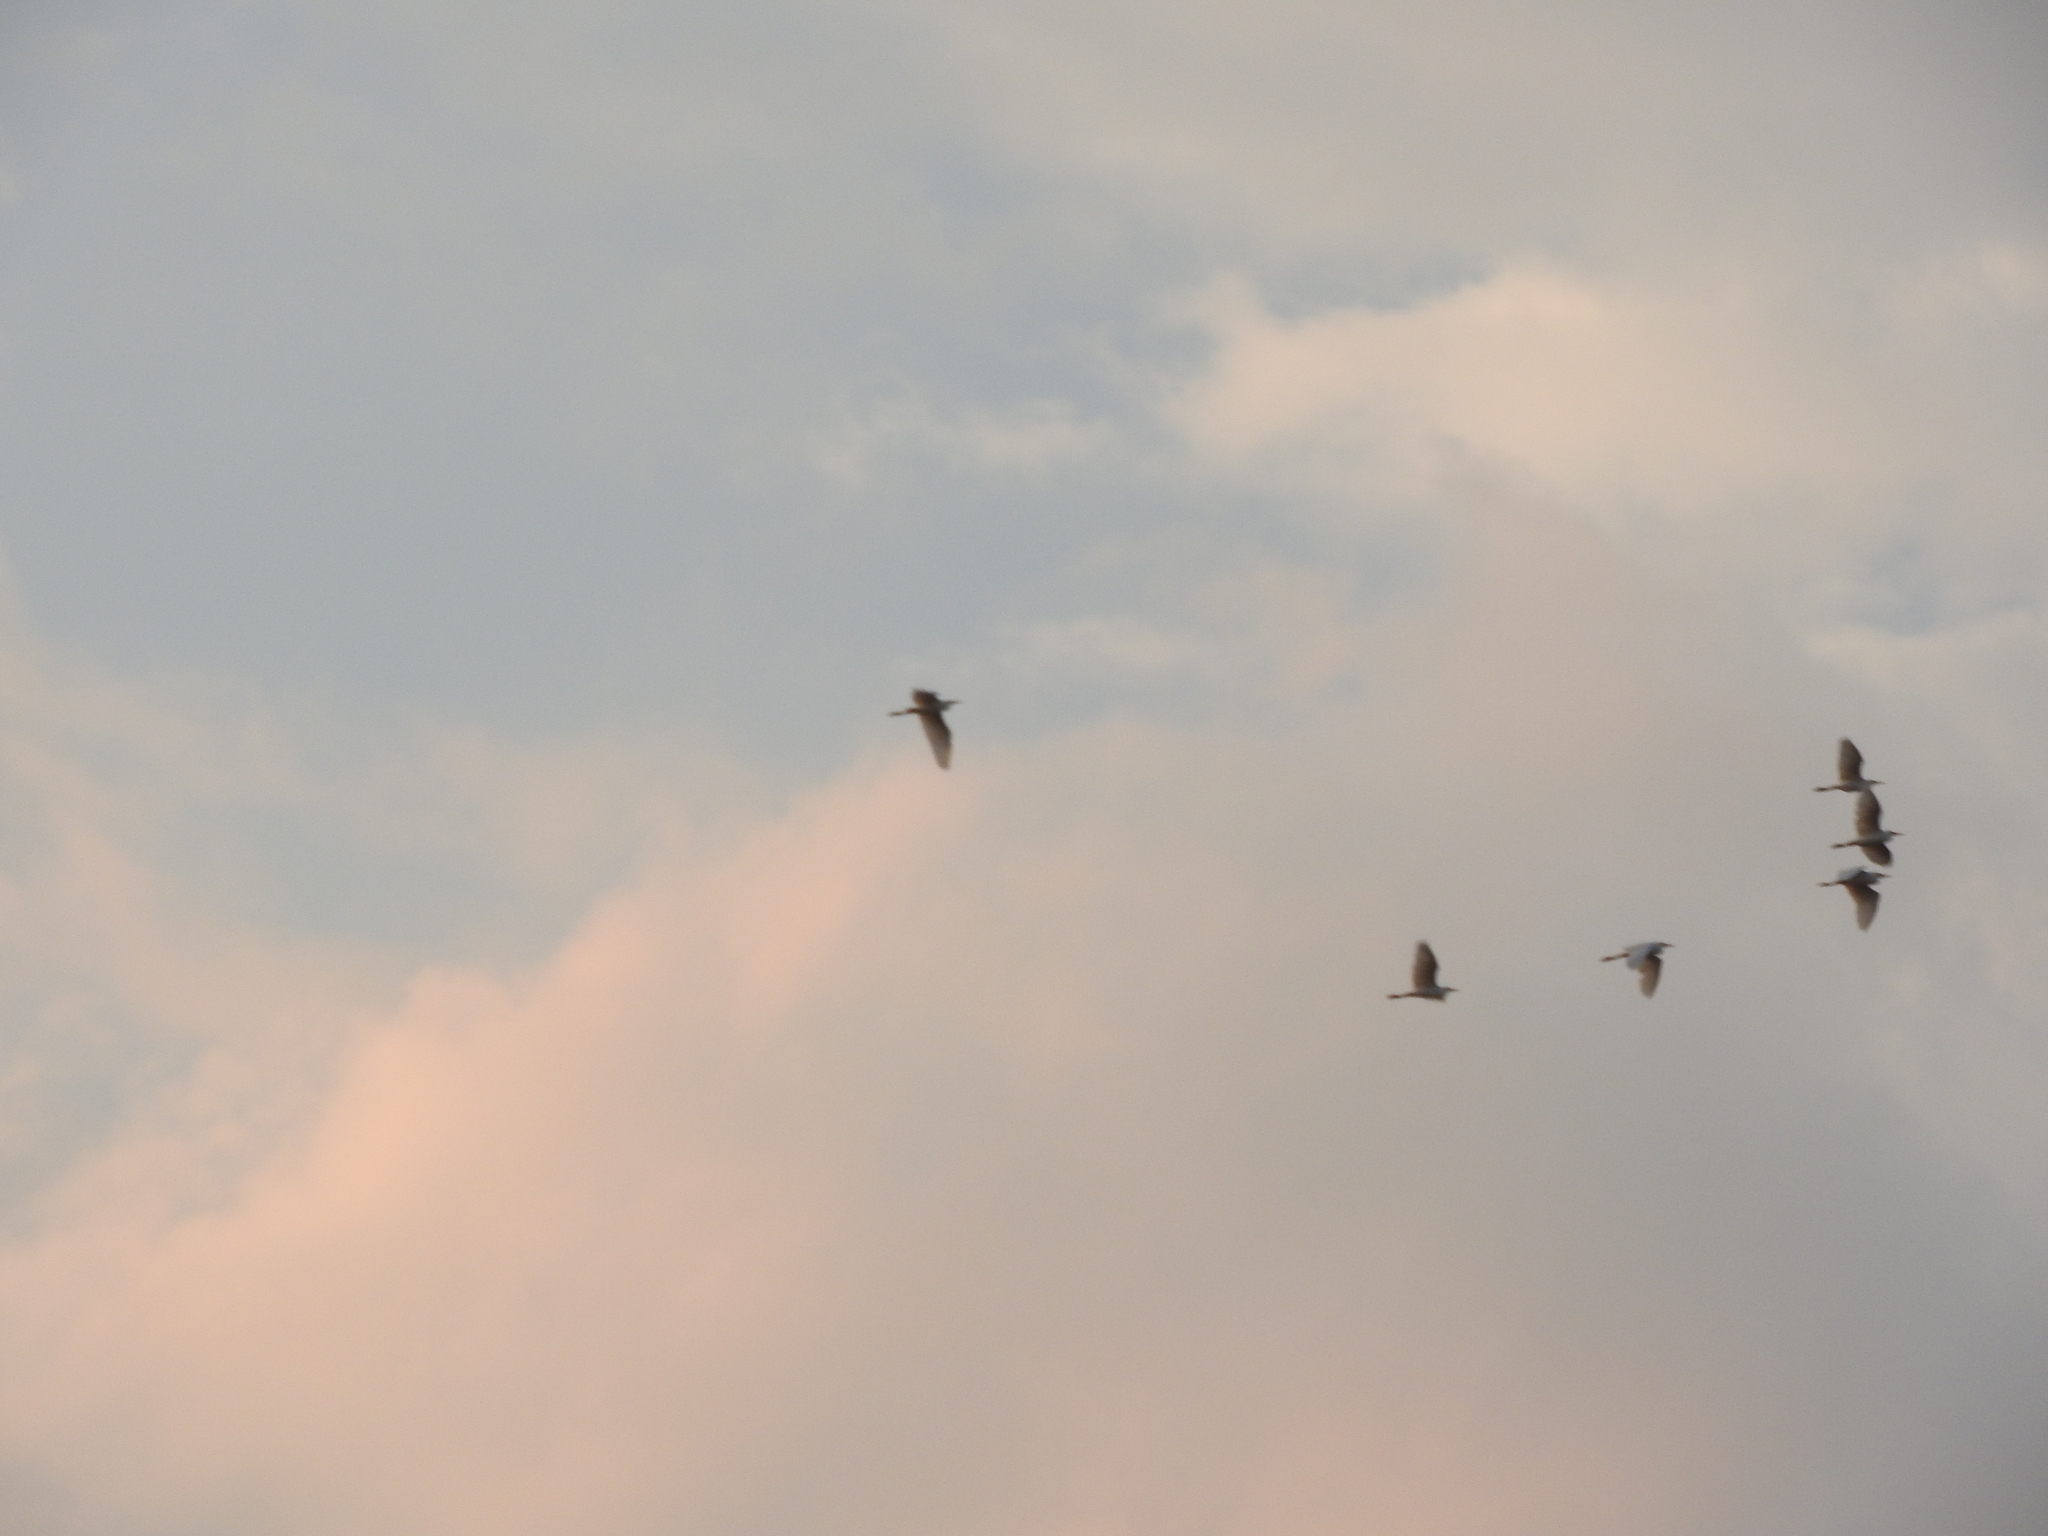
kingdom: Animalia
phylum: Chordata
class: Aves
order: Pelecaniformes
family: Ardeidae
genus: Bubulcus
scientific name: Bubulcus ibis
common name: Cattle egret
